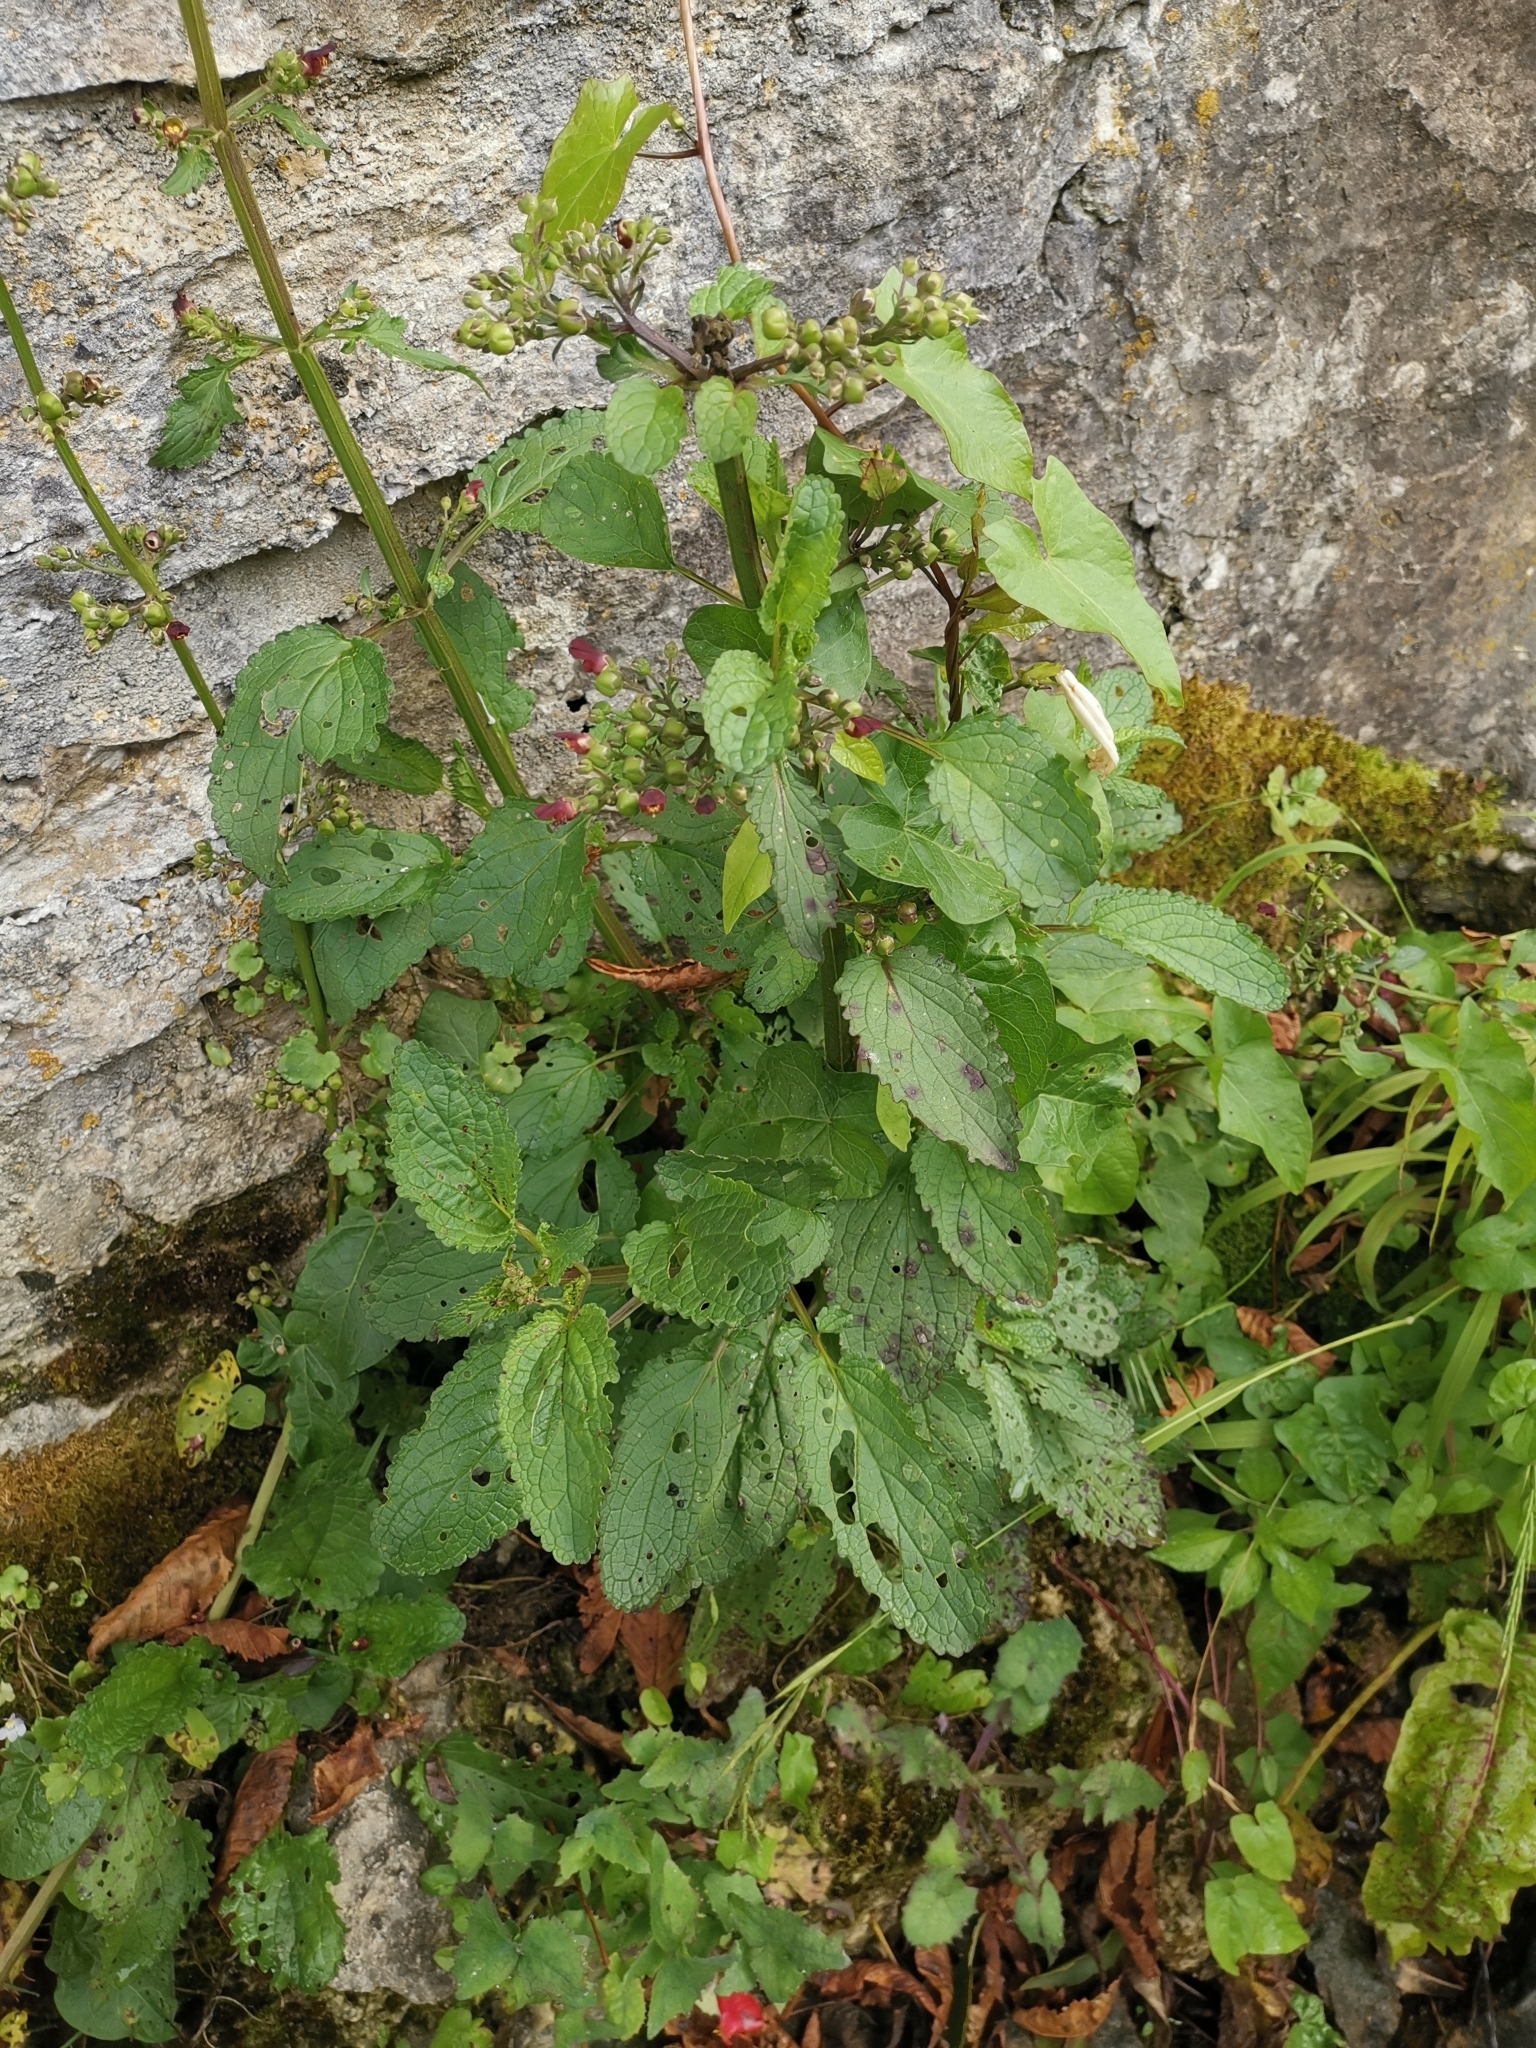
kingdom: Plantae
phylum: Tracheophyta
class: Magnoliopsida
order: Lamiales
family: Scrophulariaceae
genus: Scrophularia
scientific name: Scrophularia nodosa
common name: Common figwort
